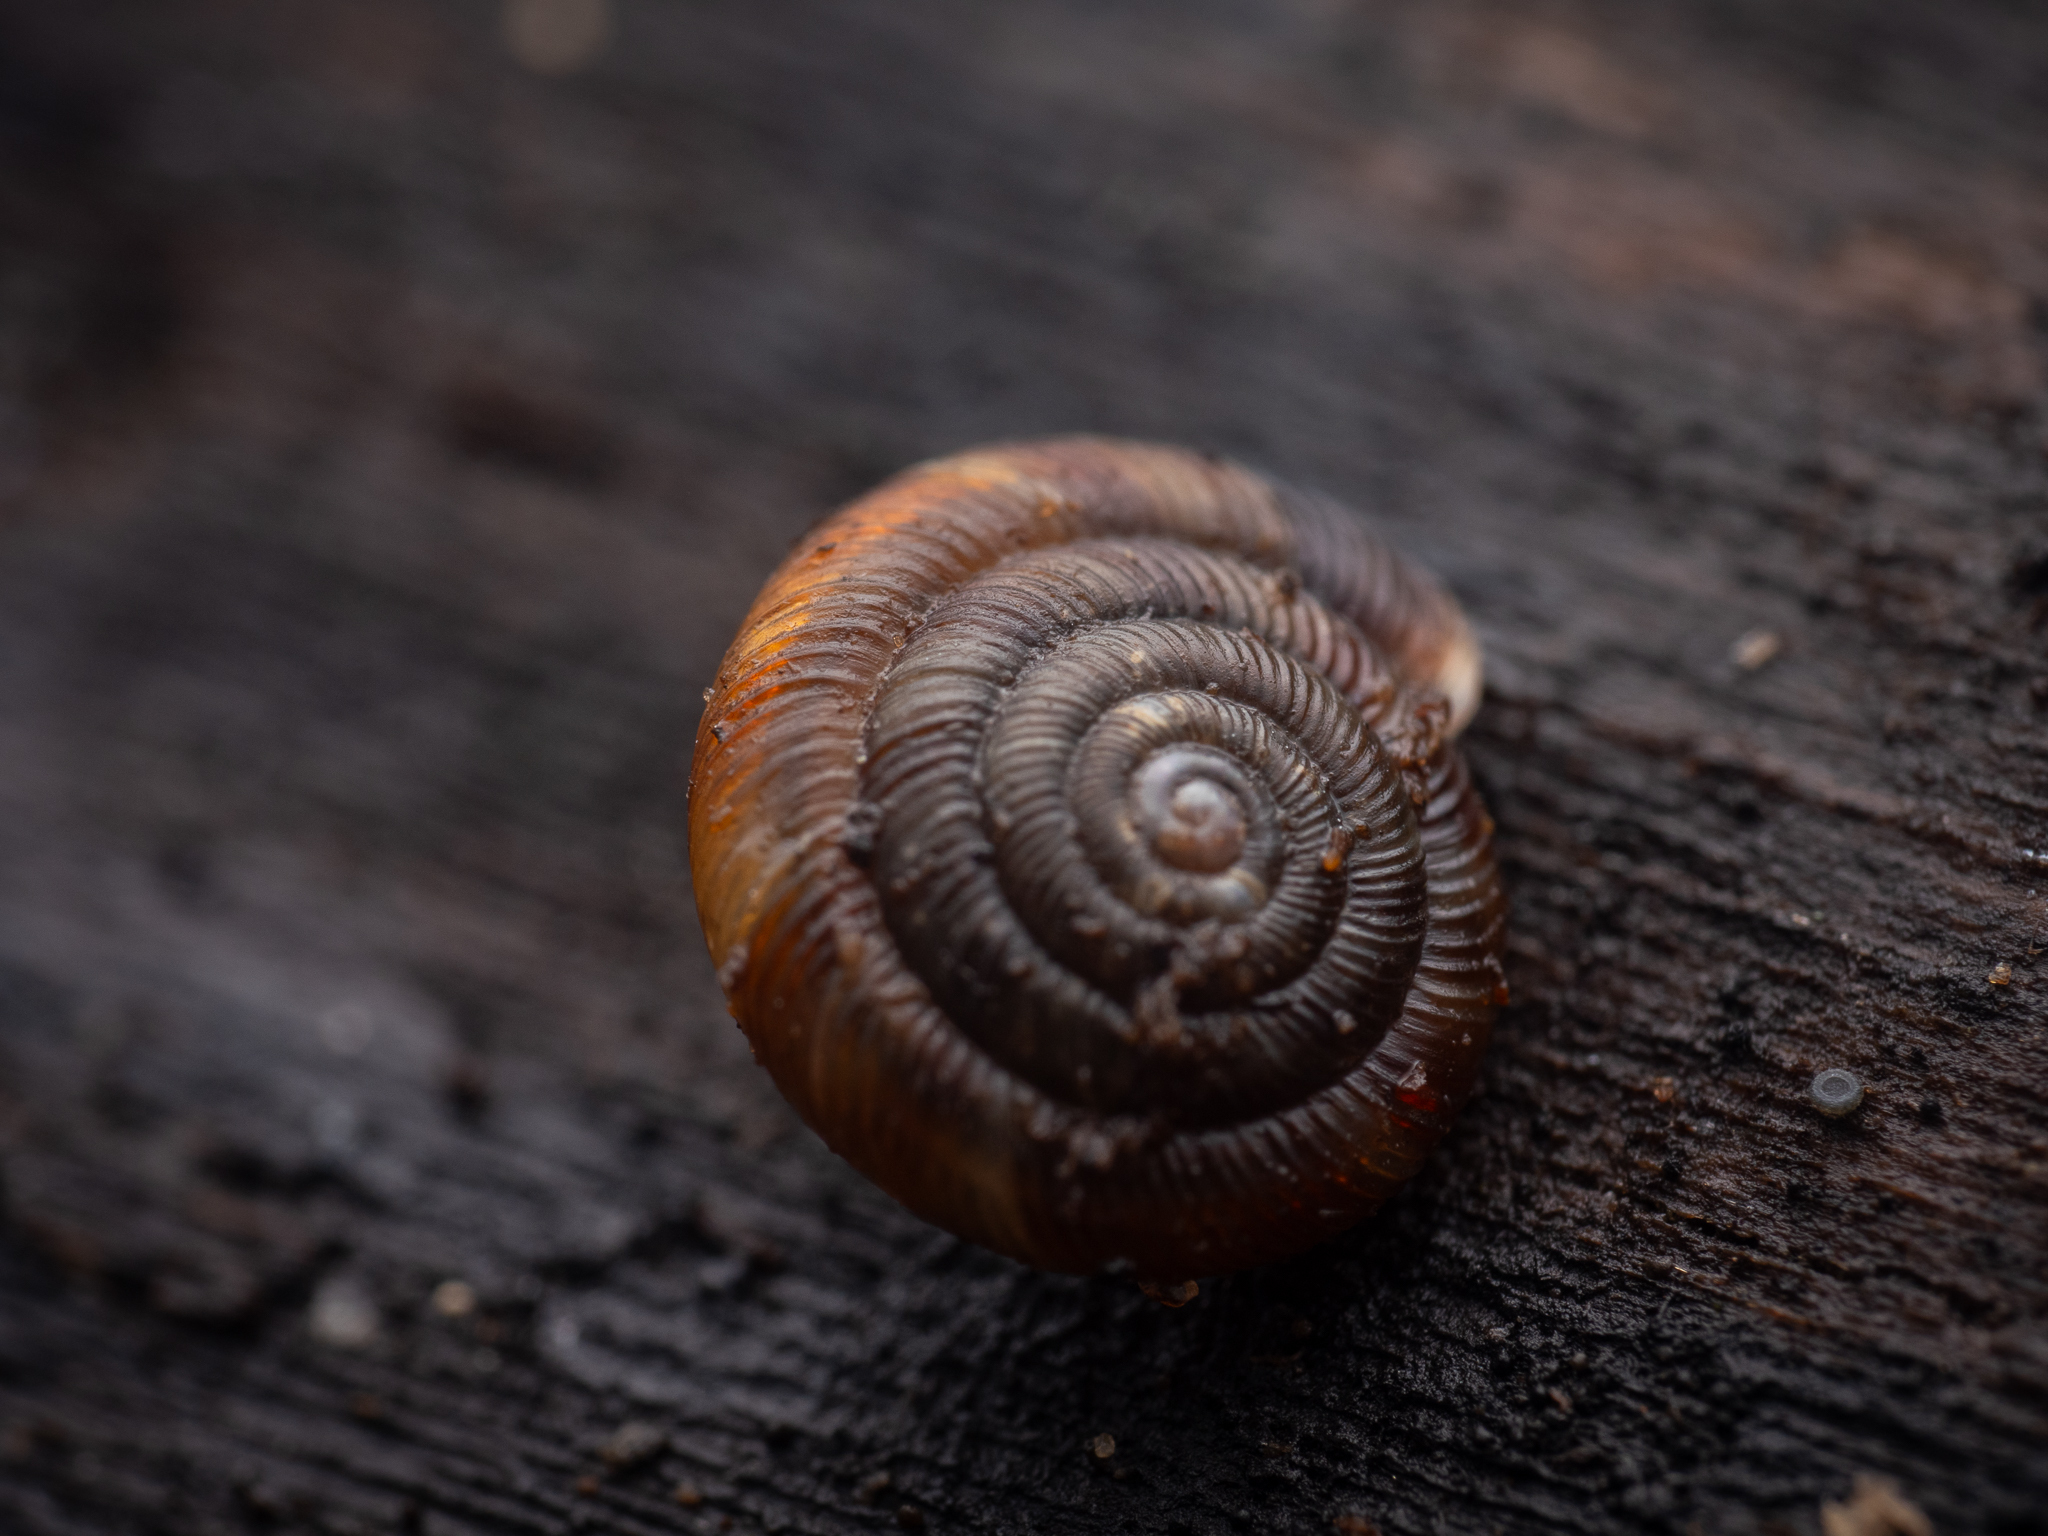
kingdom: Animalia
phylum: Mollusca
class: Gastropoda
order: Stylommatophora
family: Discidae
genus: Discus
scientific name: Discus rotundatus
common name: Rounded snail
